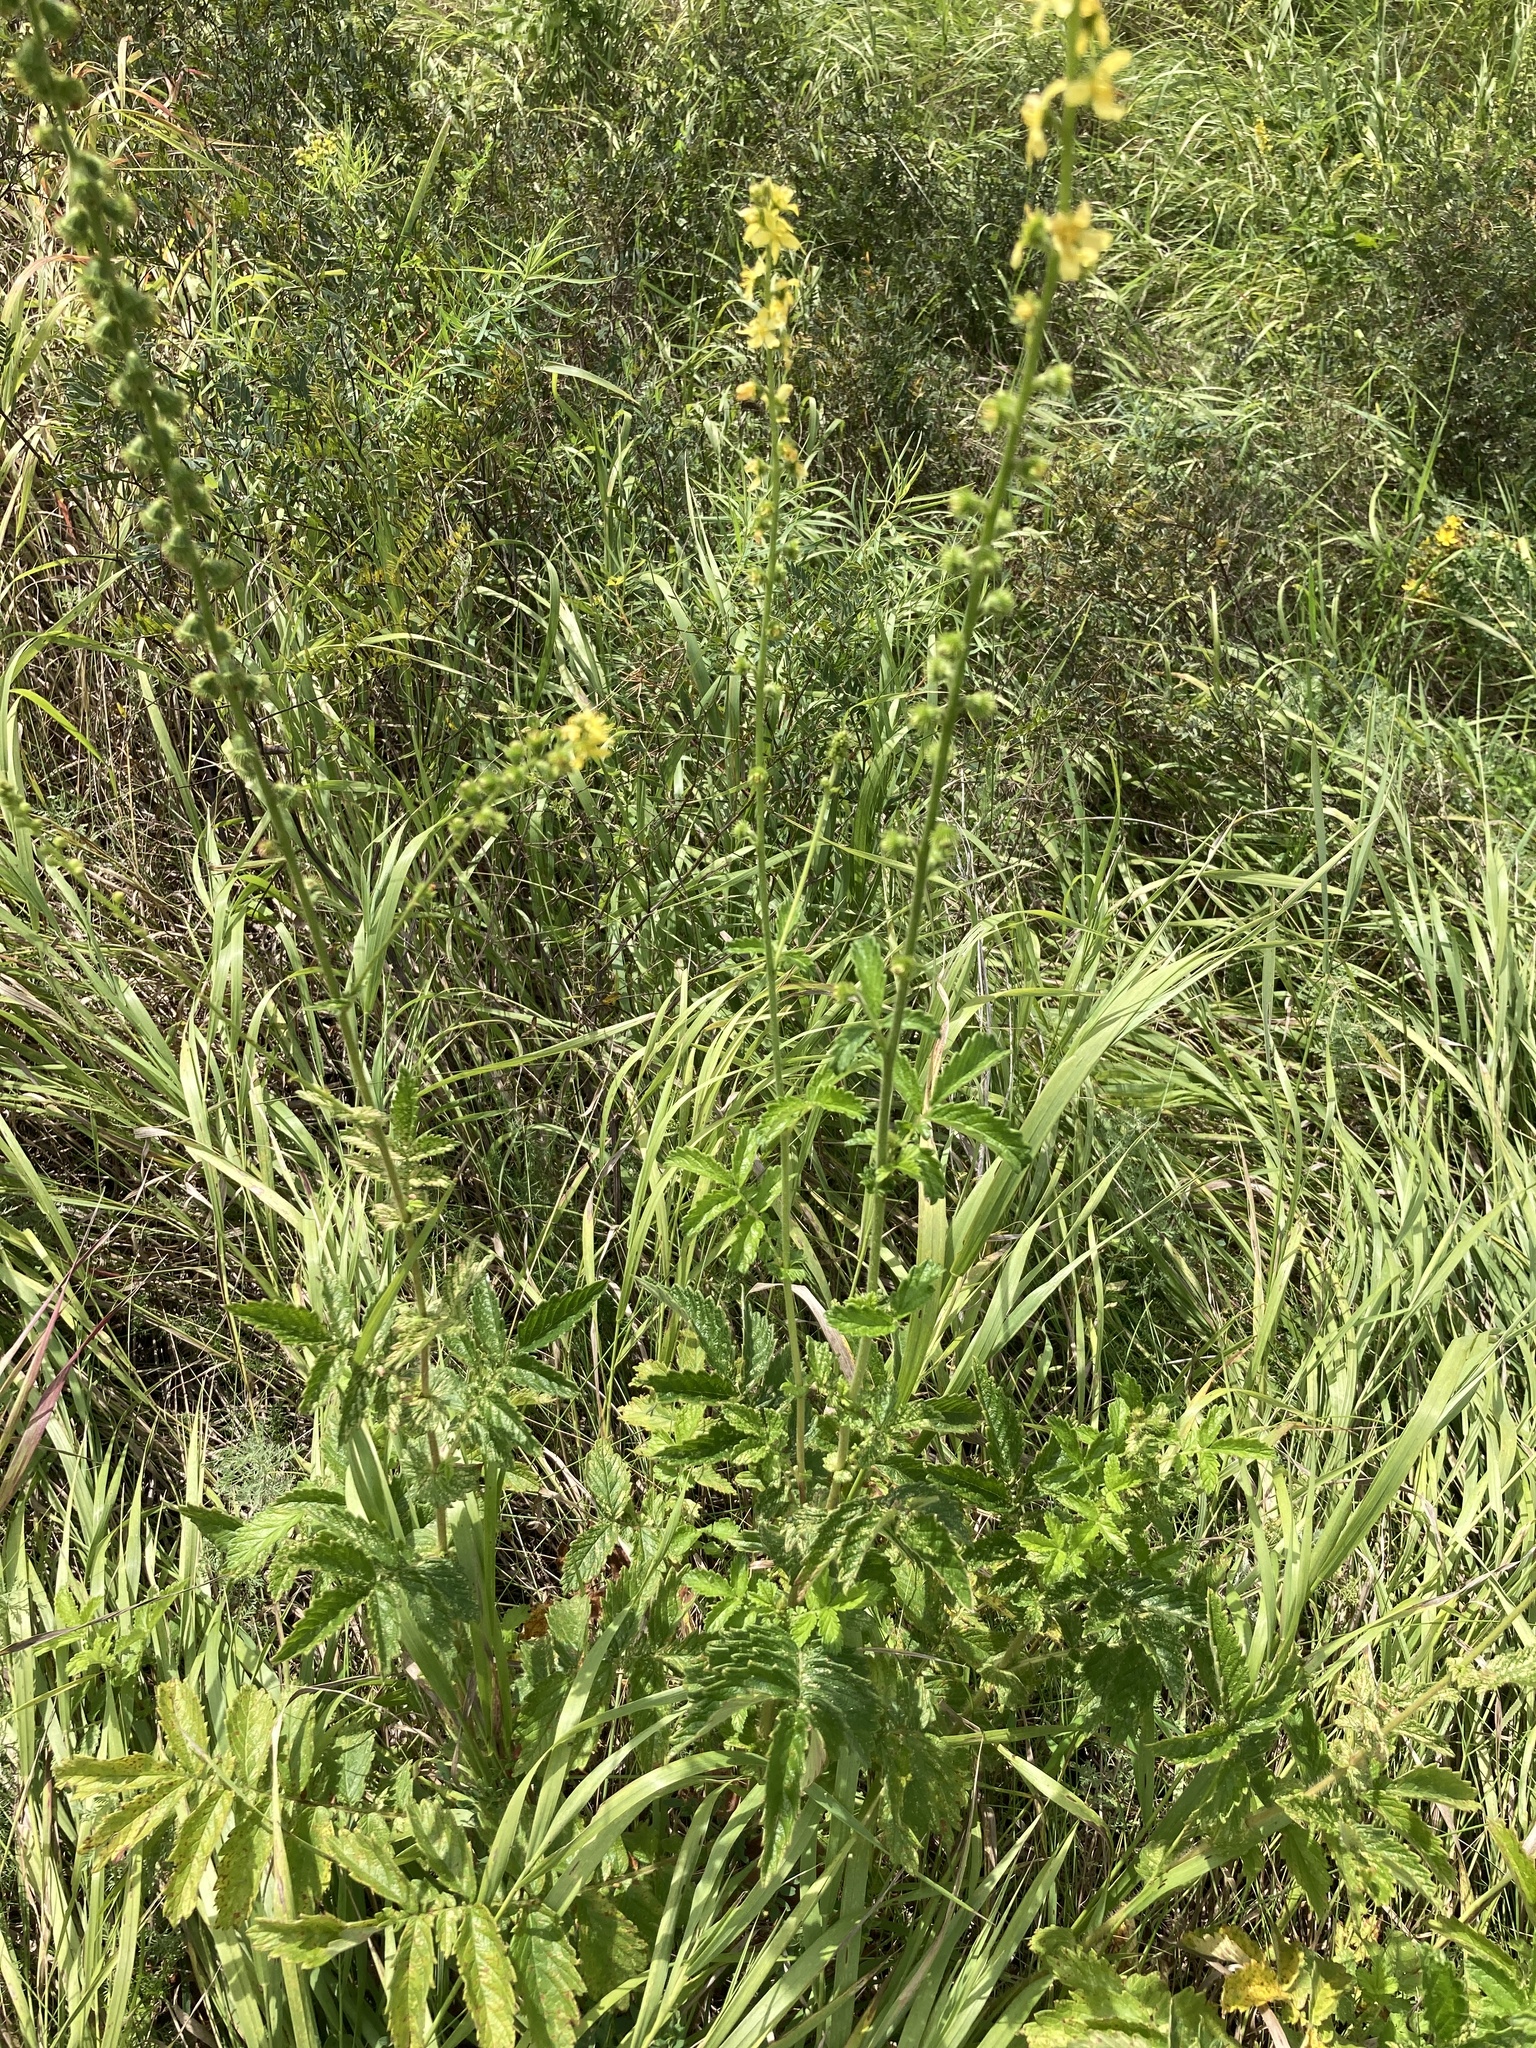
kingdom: Plantae
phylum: Tracheophyta
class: Magnoliopsida
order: Rosales
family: Rosaceae
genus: Agrimonia
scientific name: Agrimonia eupatoria
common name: Agrimony
